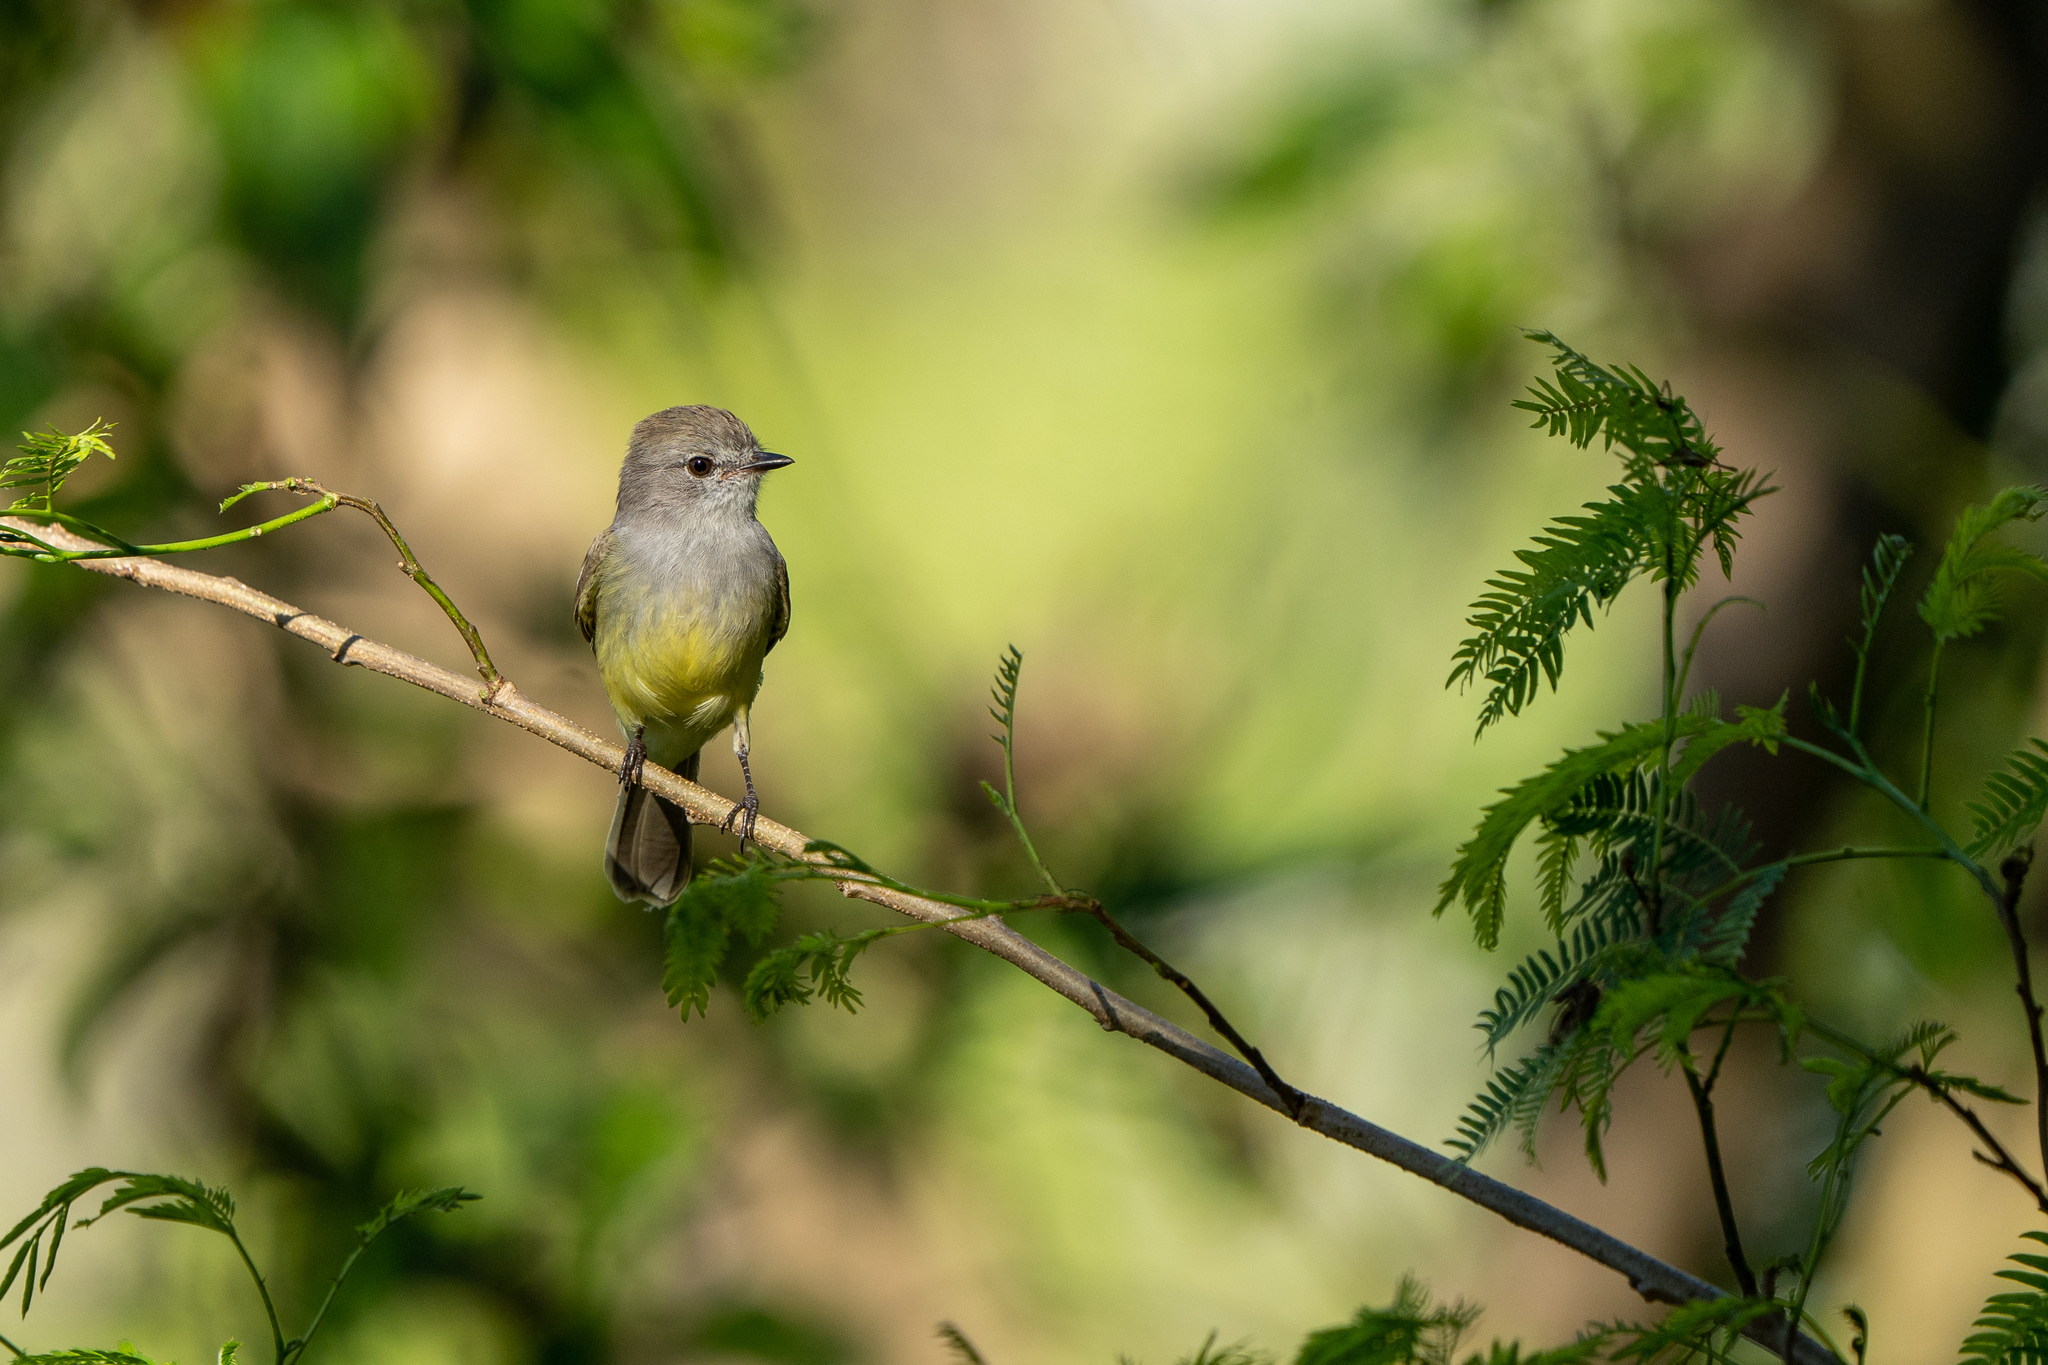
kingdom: Animalia
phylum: Chordata
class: Aves
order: Passeriformes
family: Tyrannidae
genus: Sublegatus
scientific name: Sublegatus arenarum
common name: Northern scrub-flycatcher
